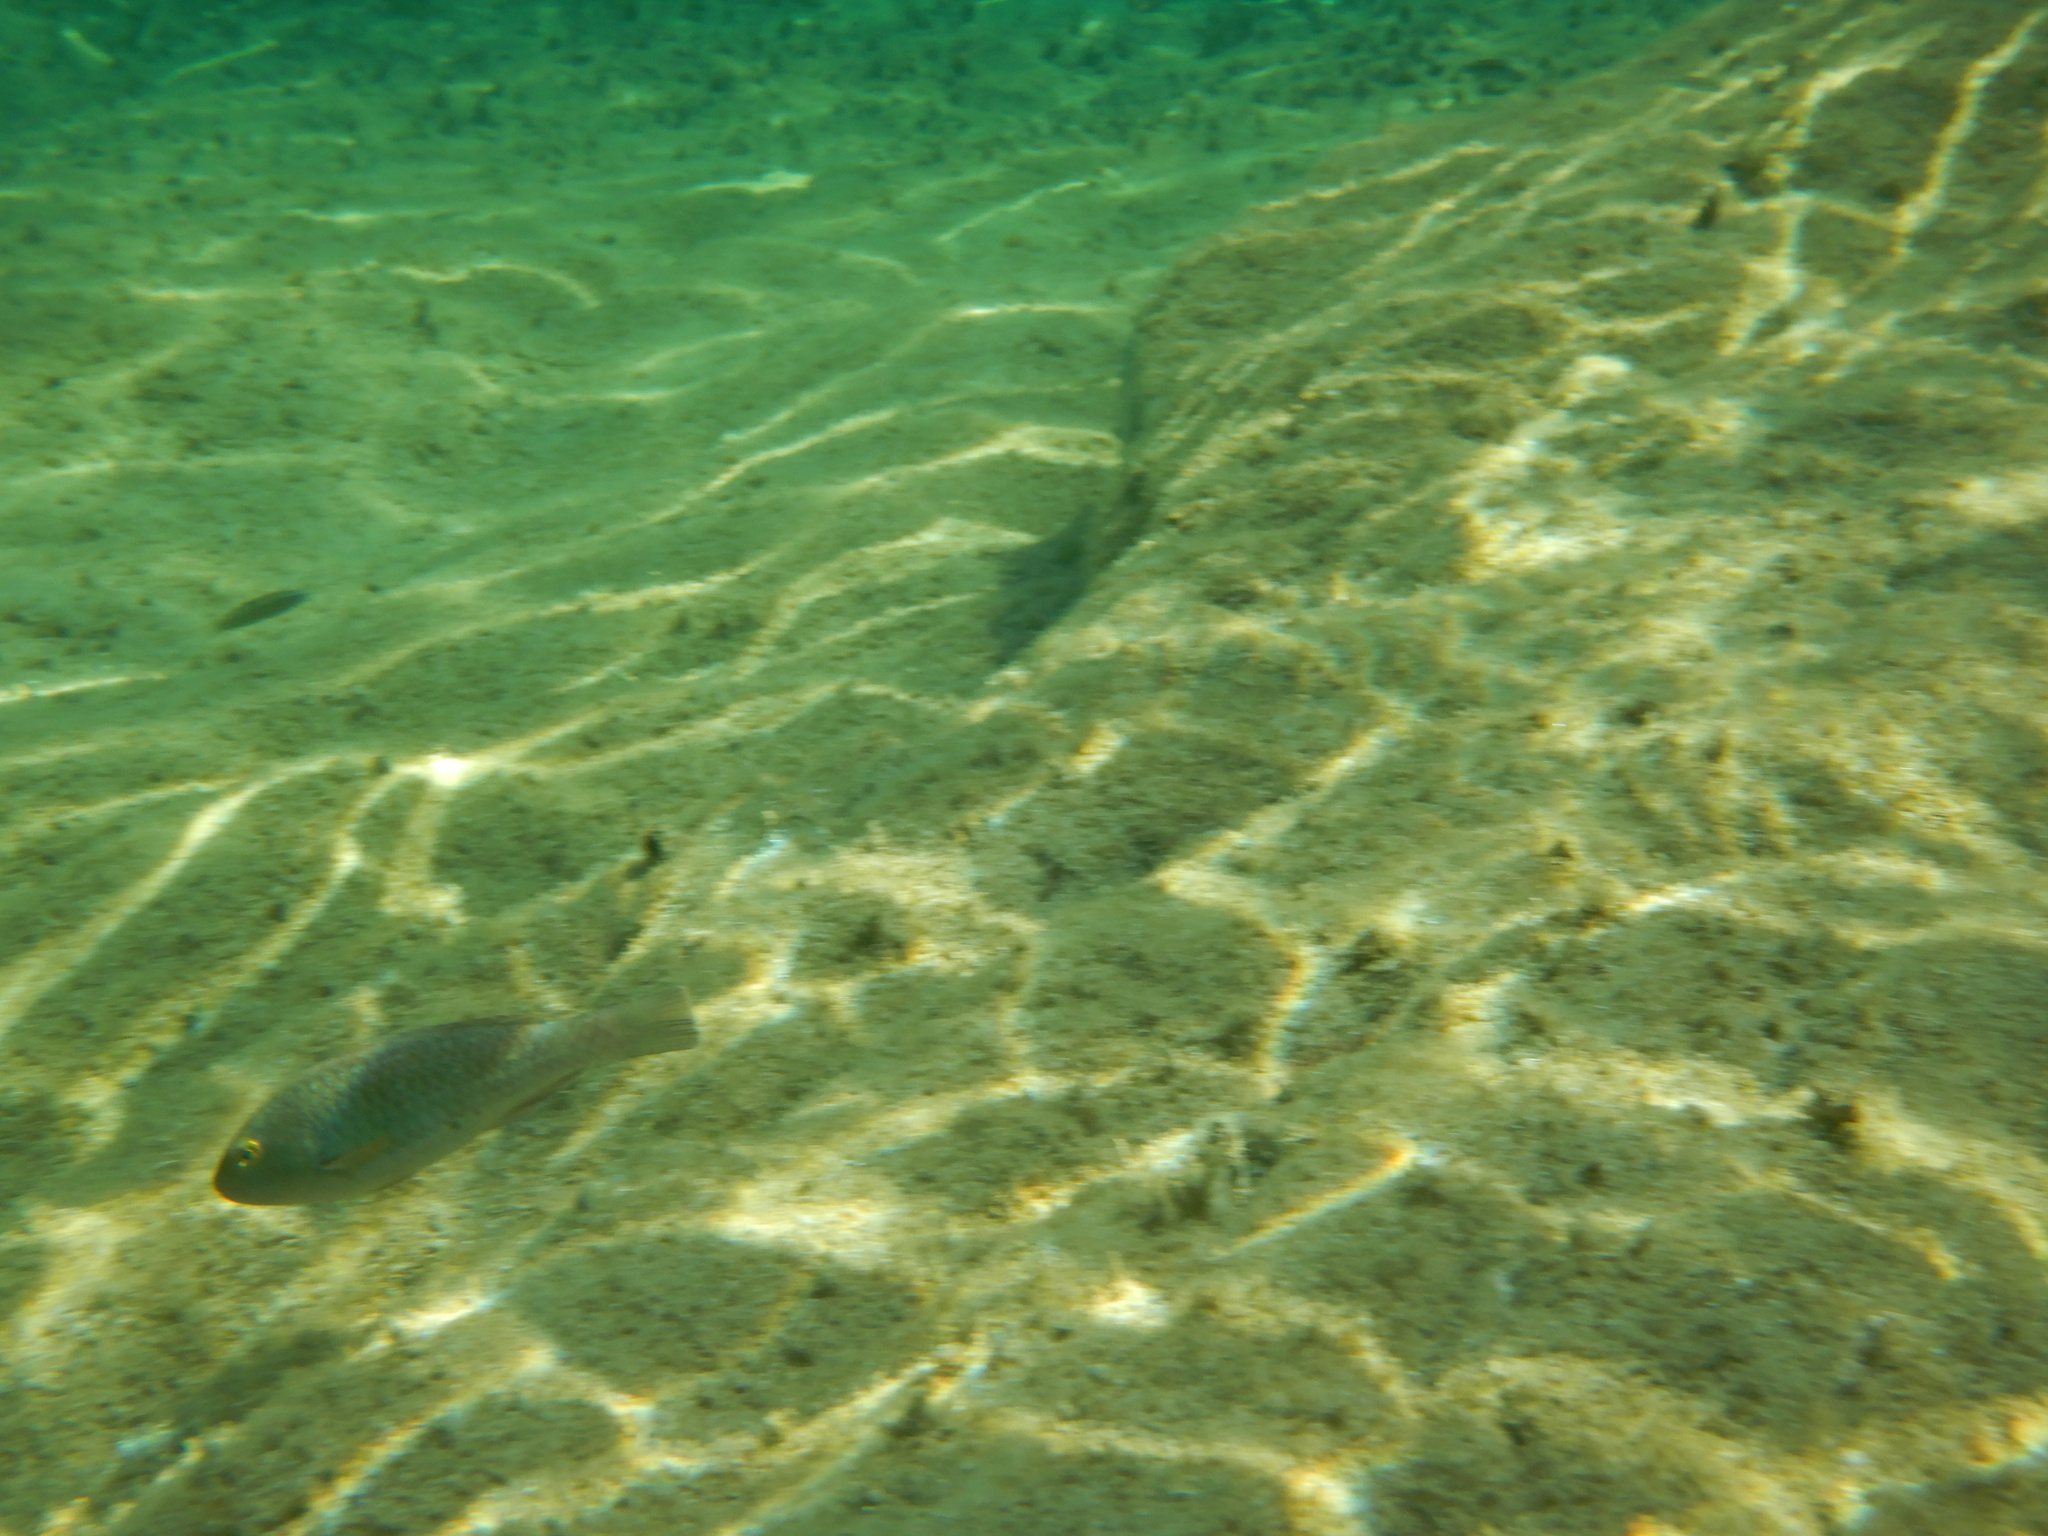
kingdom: Animalia
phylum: Chordata
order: Perciformes
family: Scaridae
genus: Sparisoma
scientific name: Sparisoma cretense
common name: Parrotfish
